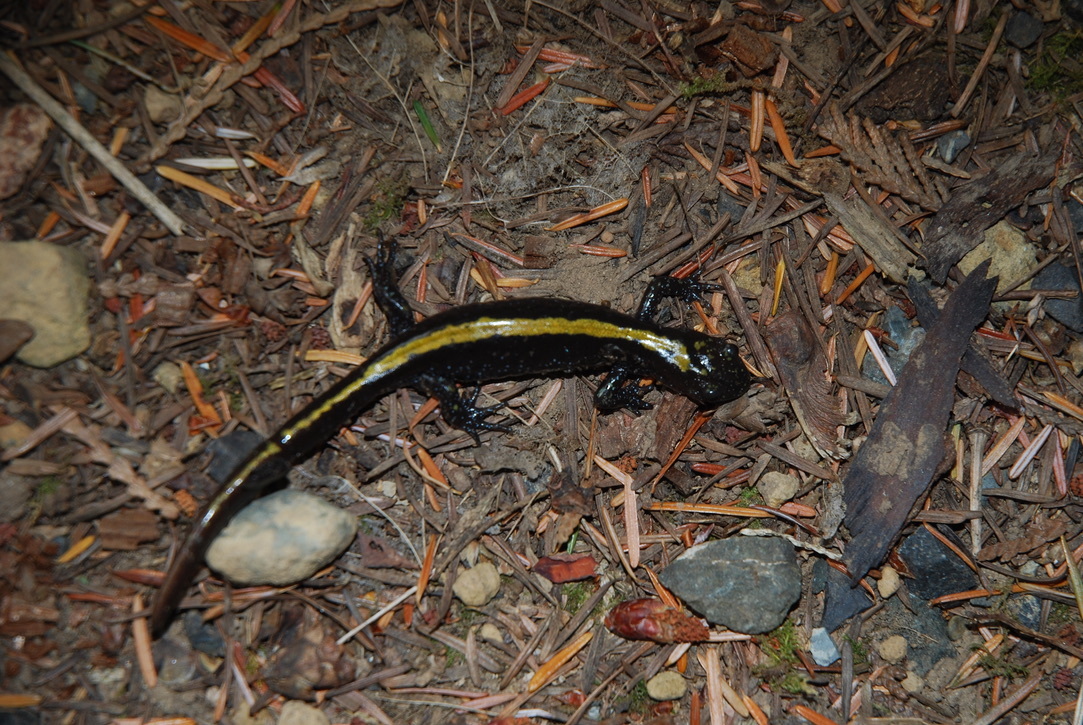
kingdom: Animalia
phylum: Chordata
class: Amphibia
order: Caudata
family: Ambystomatidae
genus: Ambystoma
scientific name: Ambystoma macrodactylum
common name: Long-toed salamander
